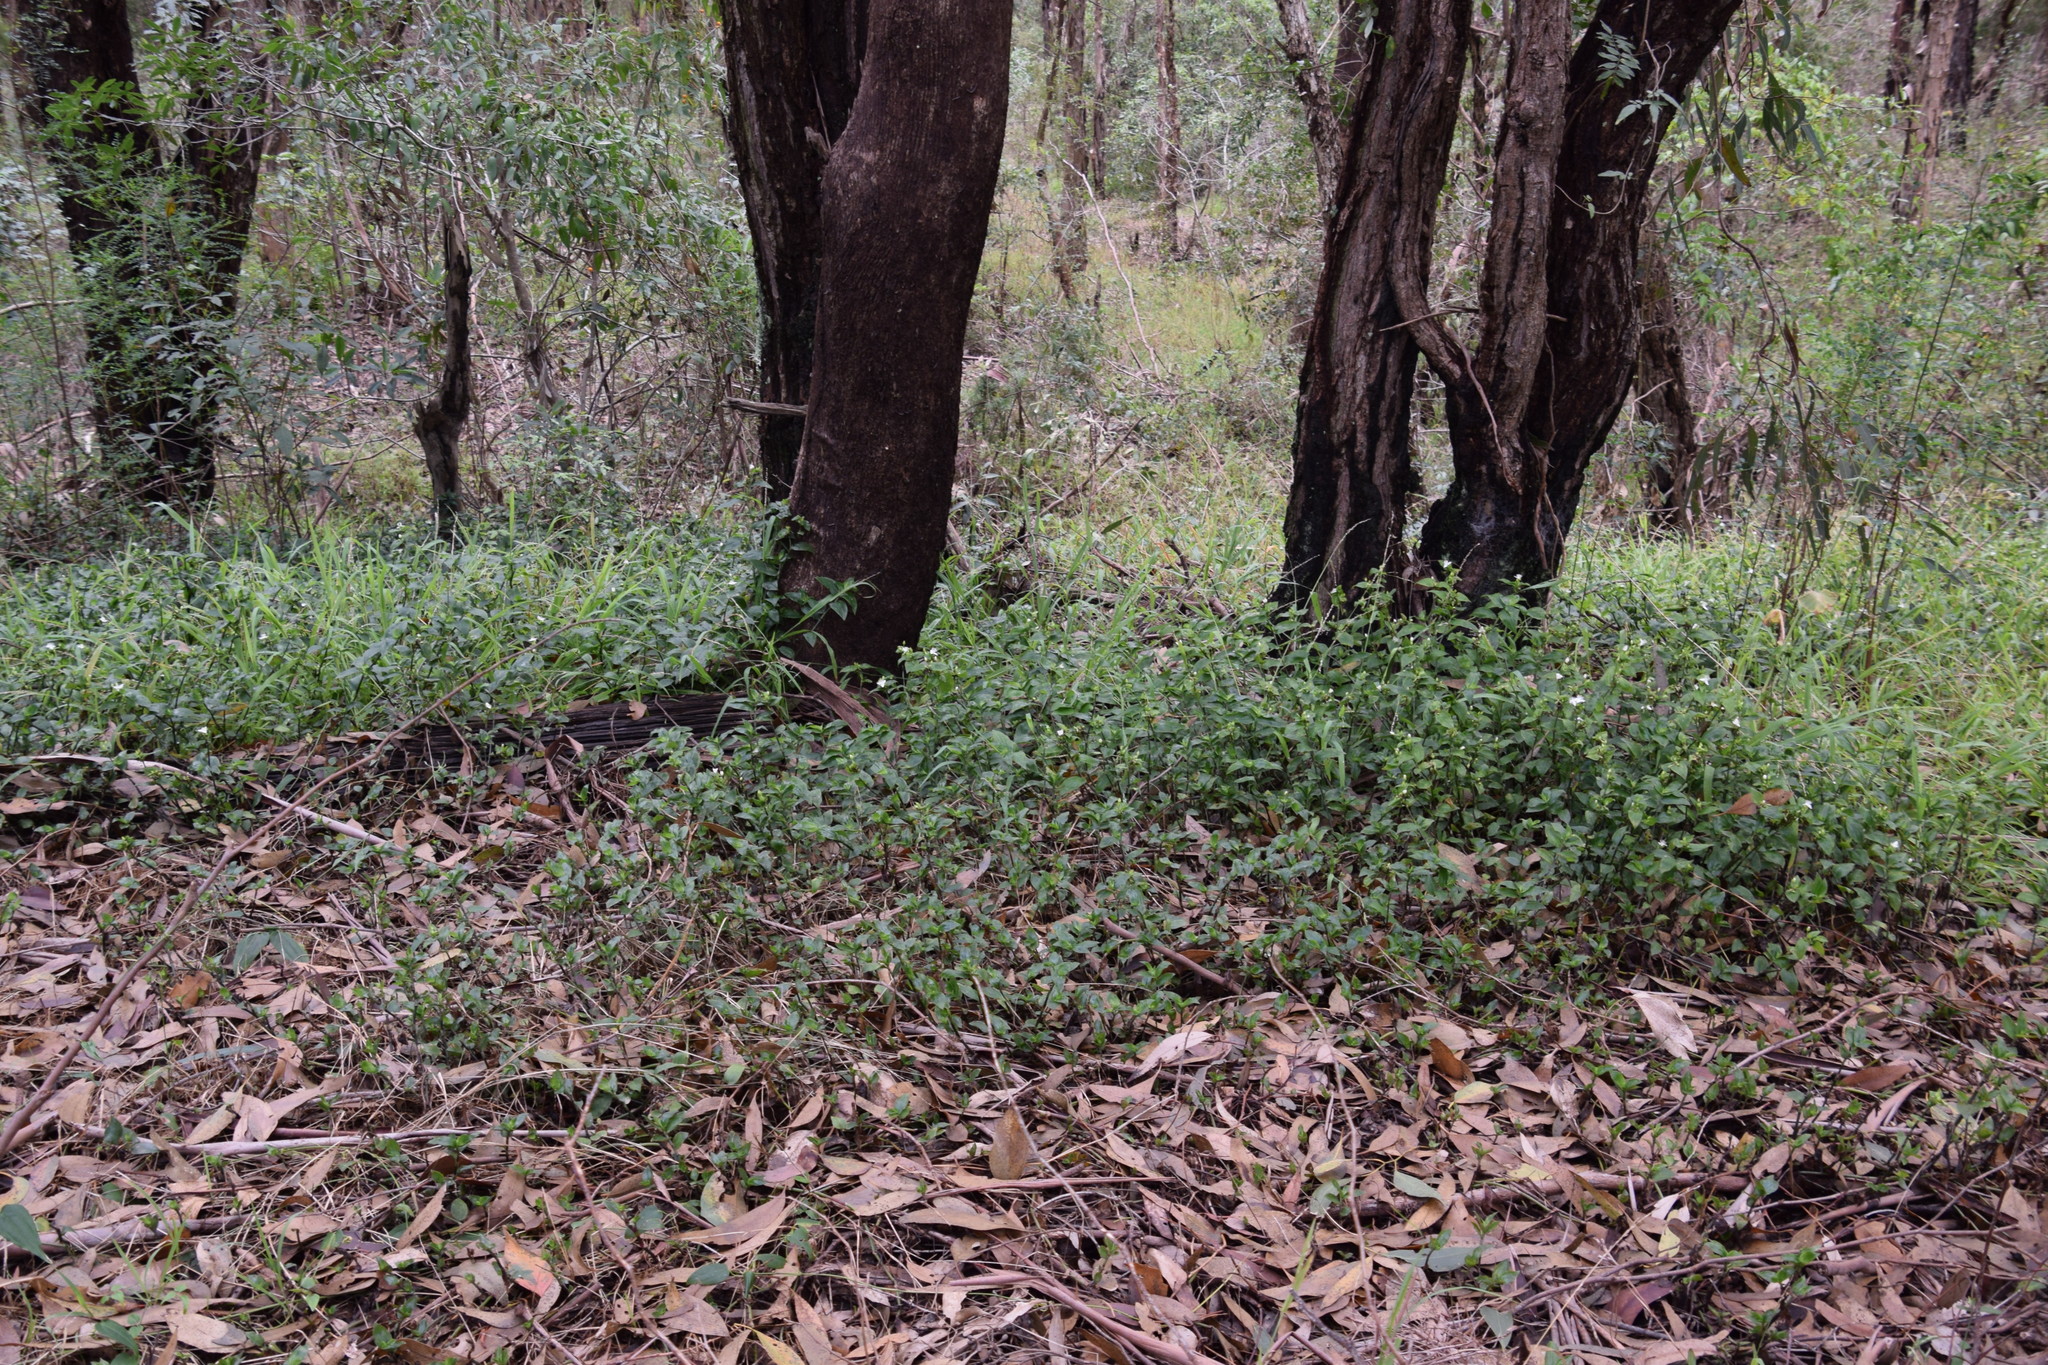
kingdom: Plantae
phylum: Tracheophyta
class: Liliopsida
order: Commelinales
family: Commelinaceae
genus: Tradescantia
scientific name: Tradescantia fluminensis
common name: Wandering-jew
